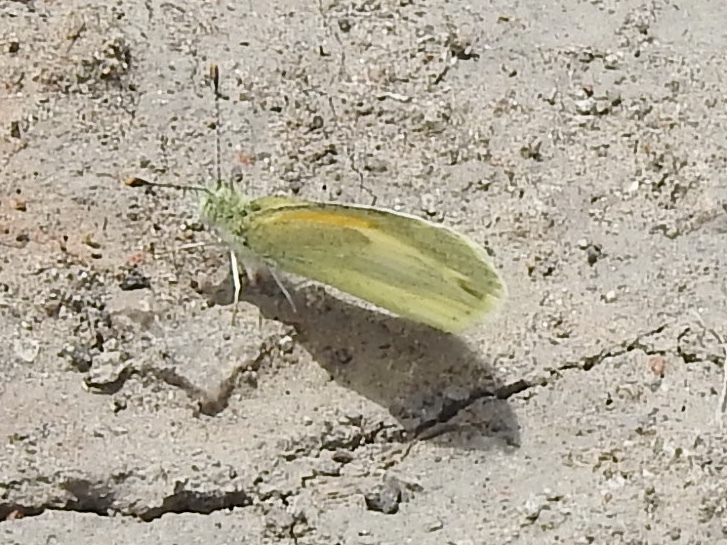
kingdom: Animalia
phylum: Arthropoda
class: Insecta
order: Lepidoptera
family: Pieridae
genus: Nathalis
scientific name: Nathalis iole
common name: Dainty sulphur
